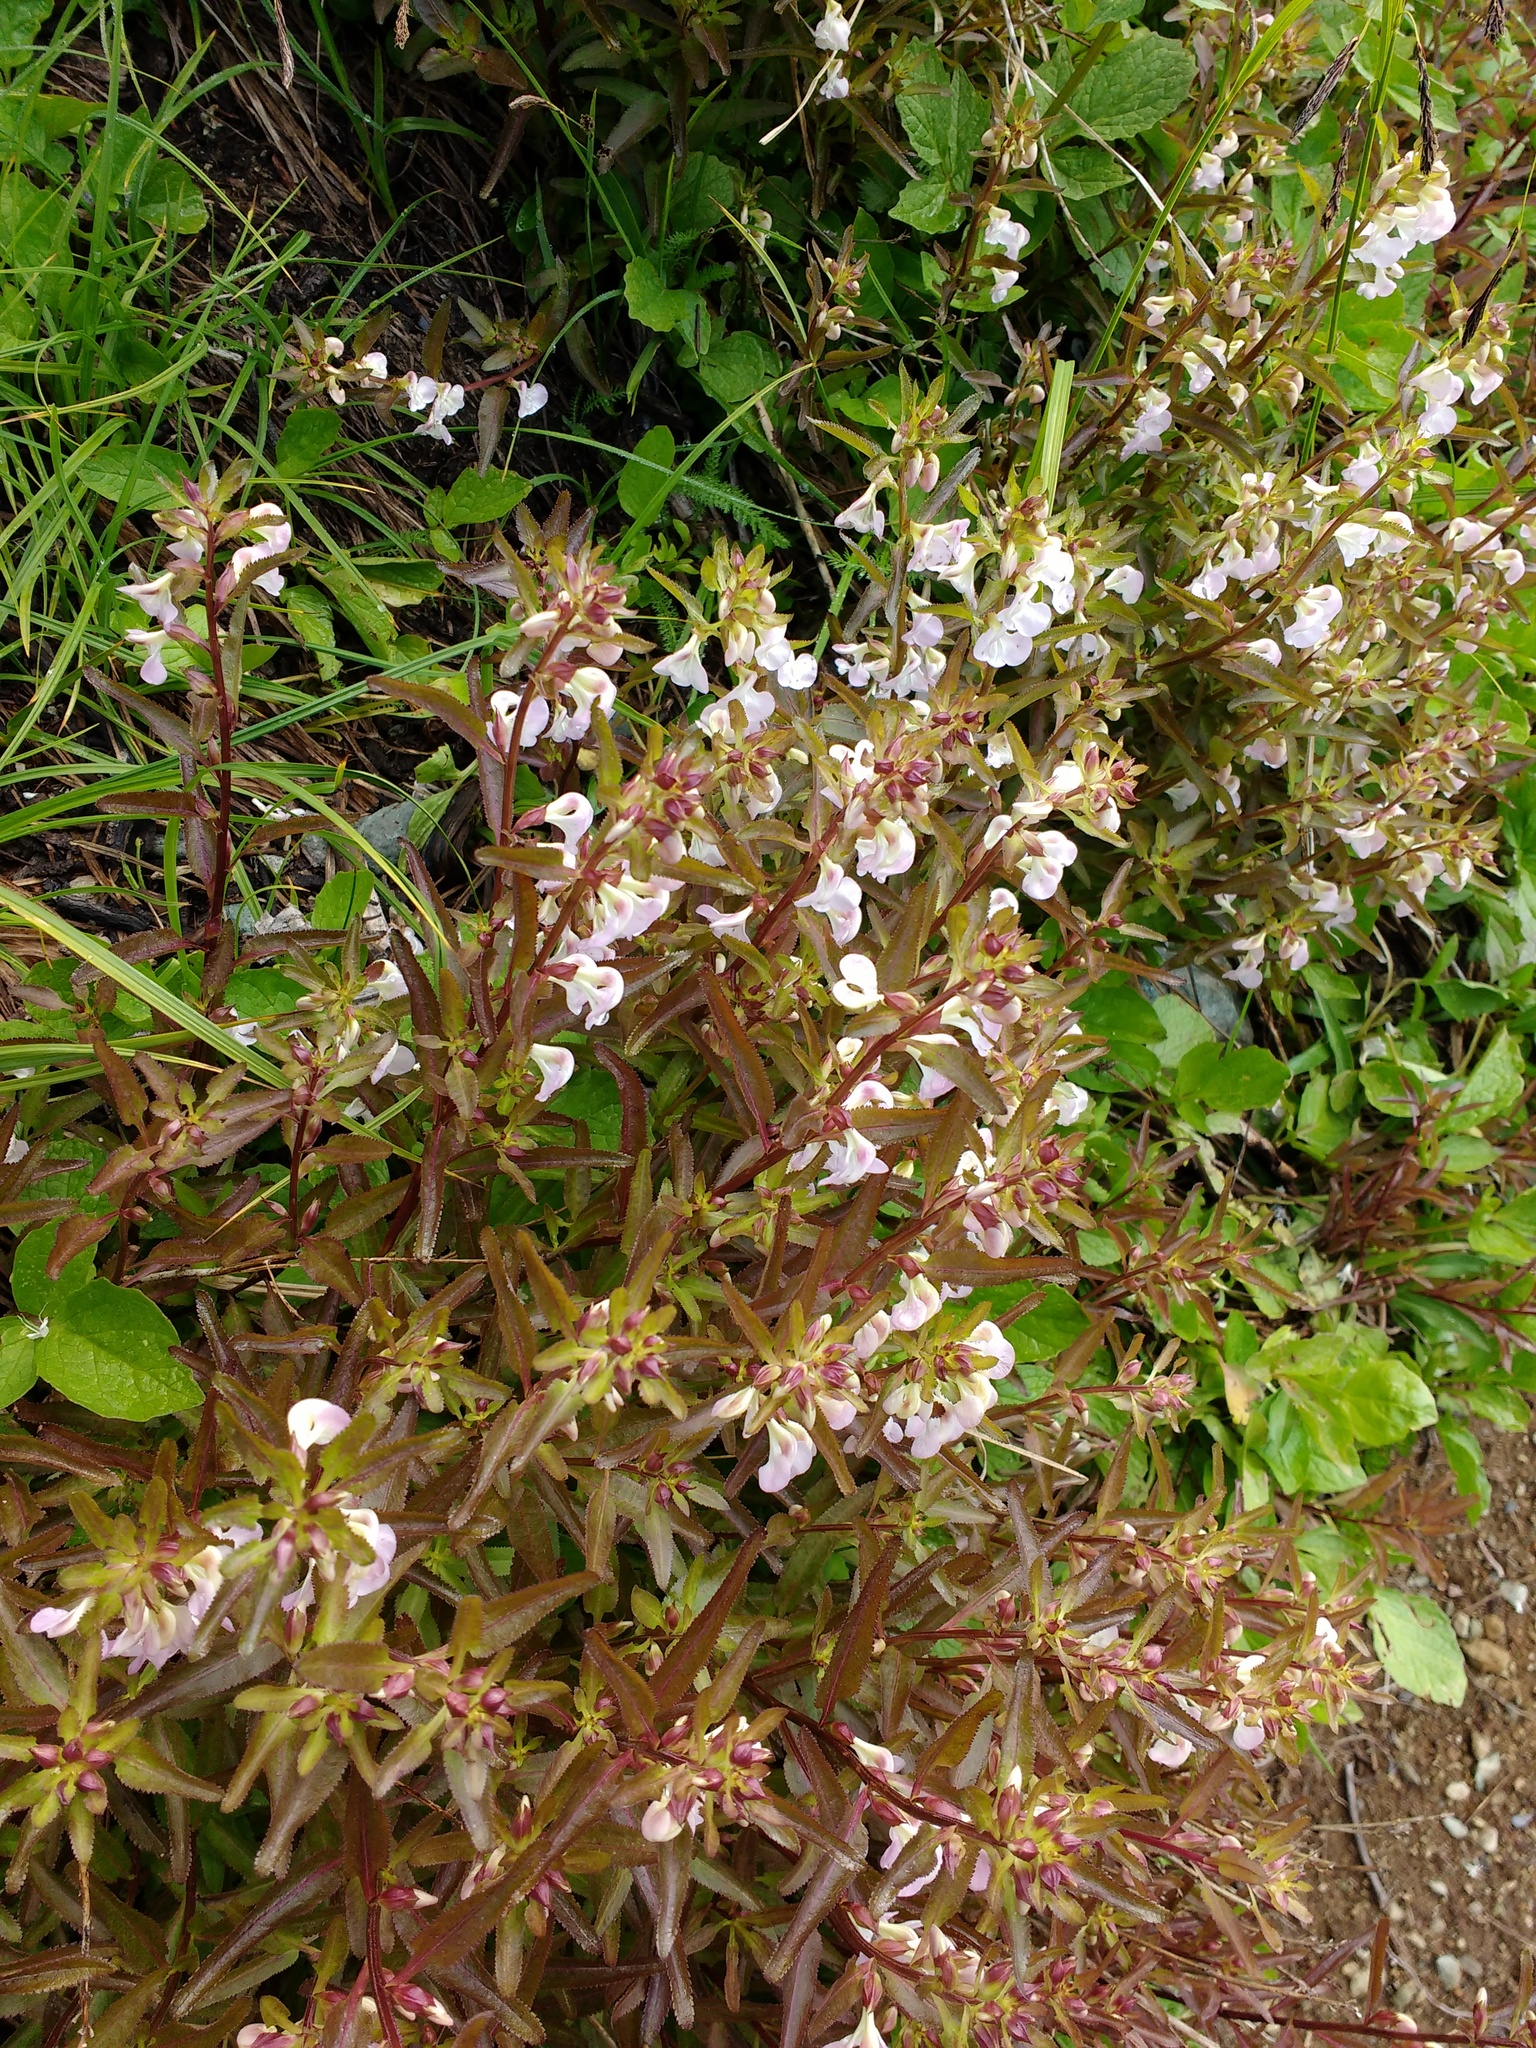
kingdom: Plantae
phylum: Tracheophyta
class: Magnoliopsida
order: Lamiales
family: Orobanchaceae
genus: Pedicularis
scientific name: Pedicularis racemosa
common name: Leafy lousewort
